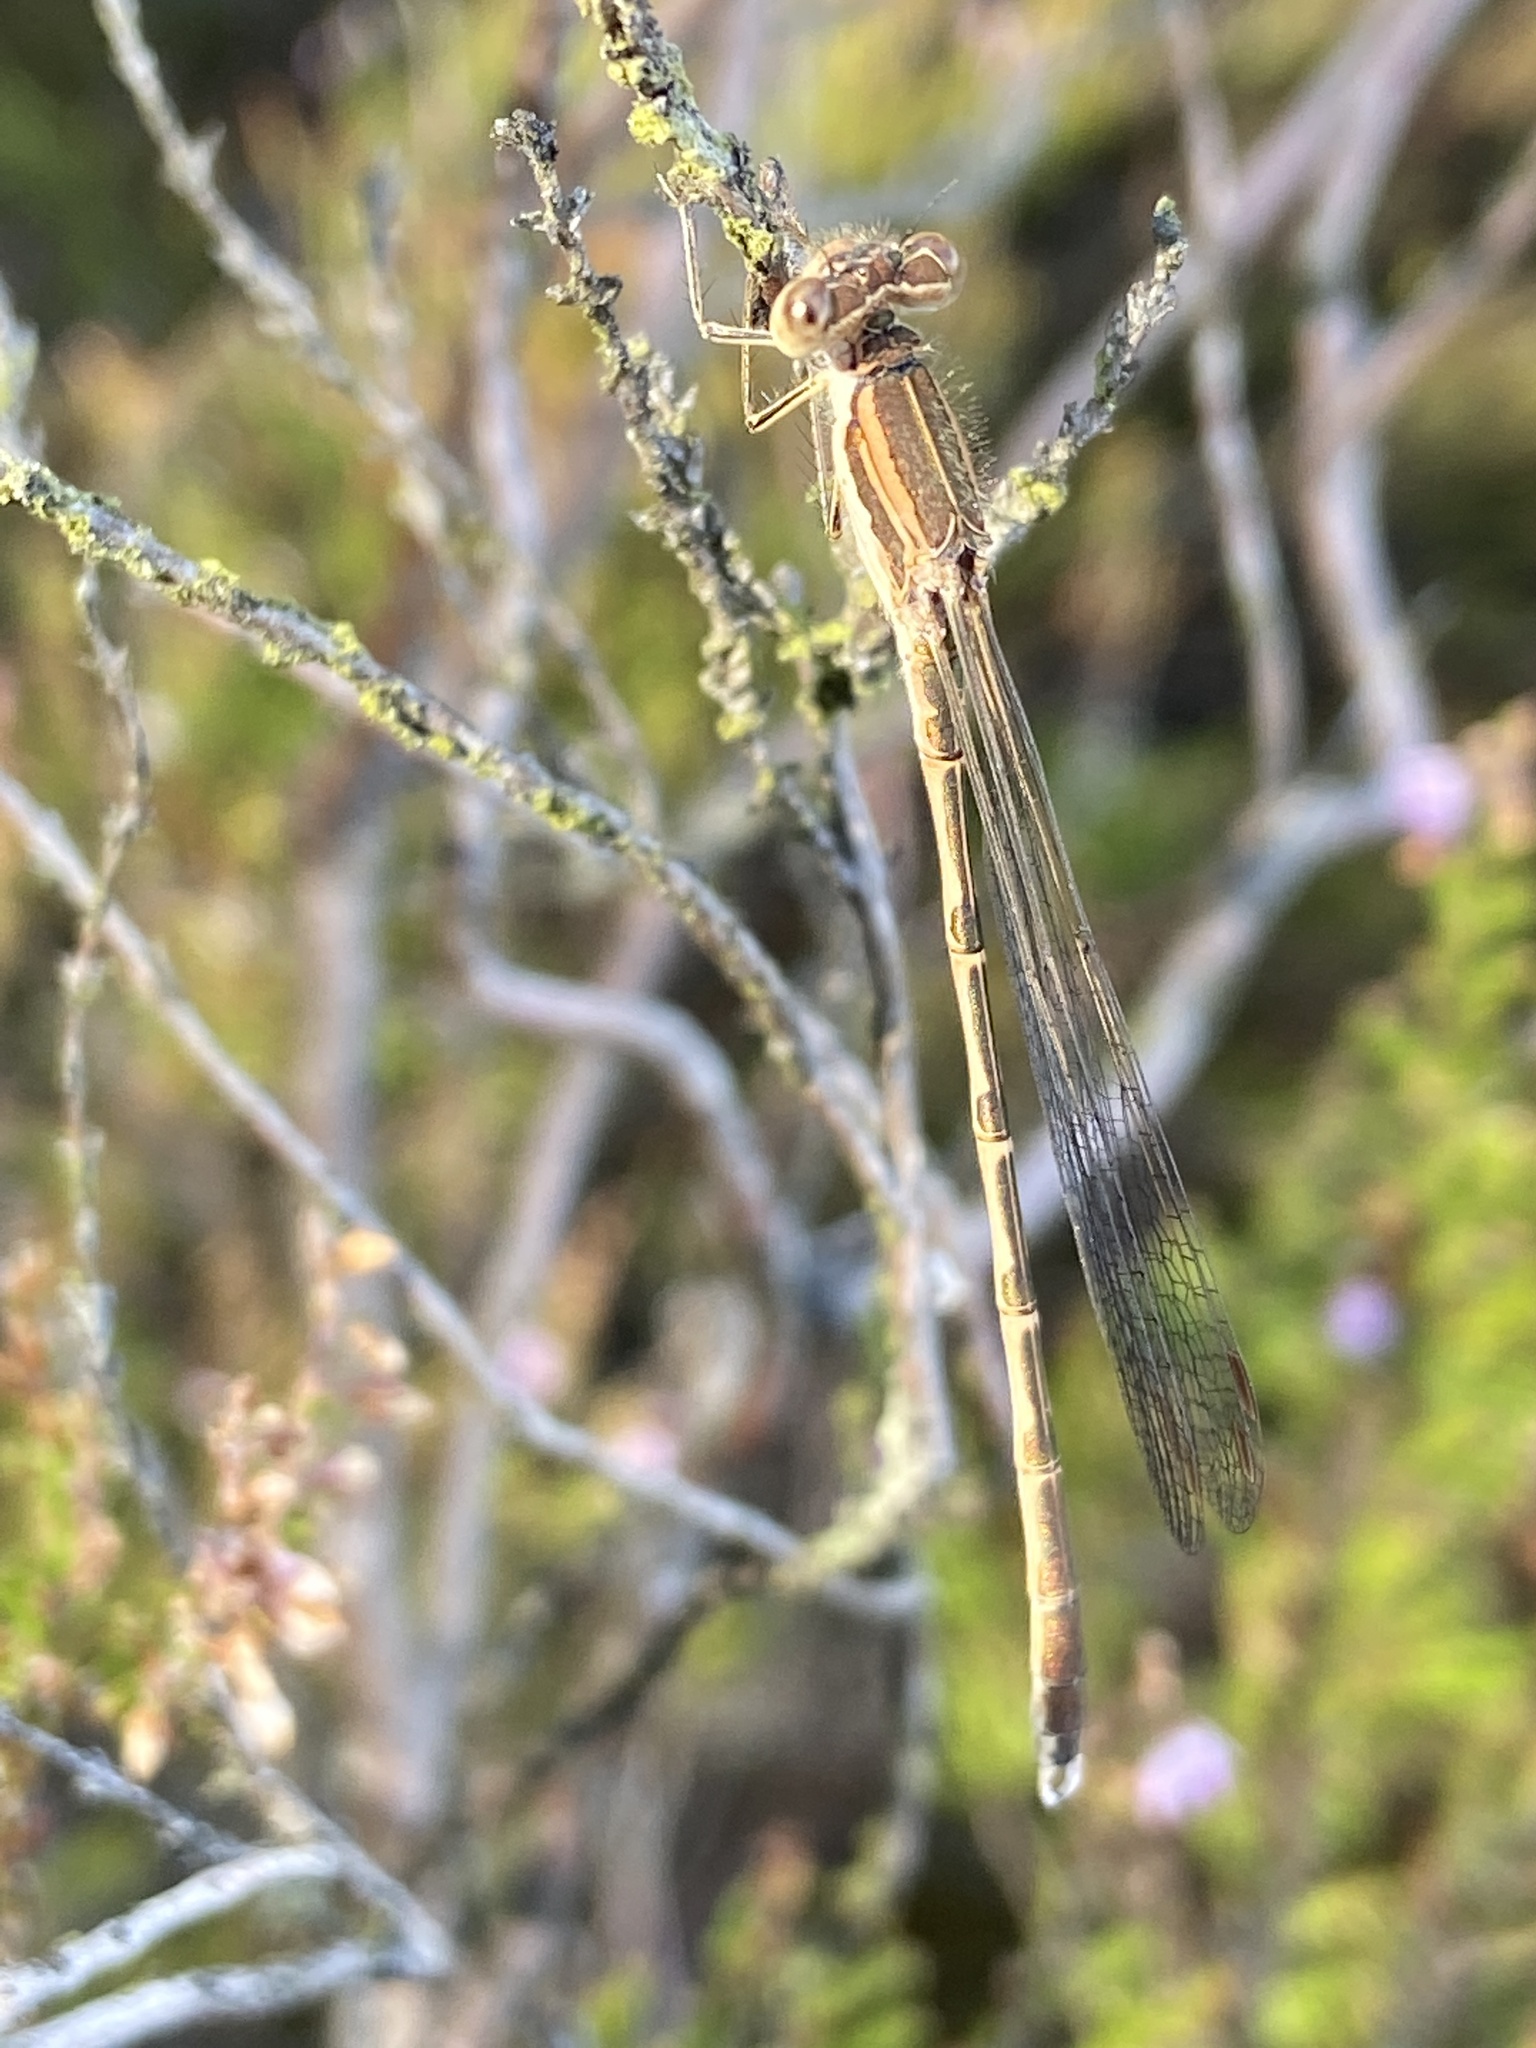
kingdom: Animalia
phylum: Arthropoda
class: Insecta
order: Odonata
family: Lestidae
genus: Sympecma
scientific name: Sympecma fusca
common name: Common winter damsel
